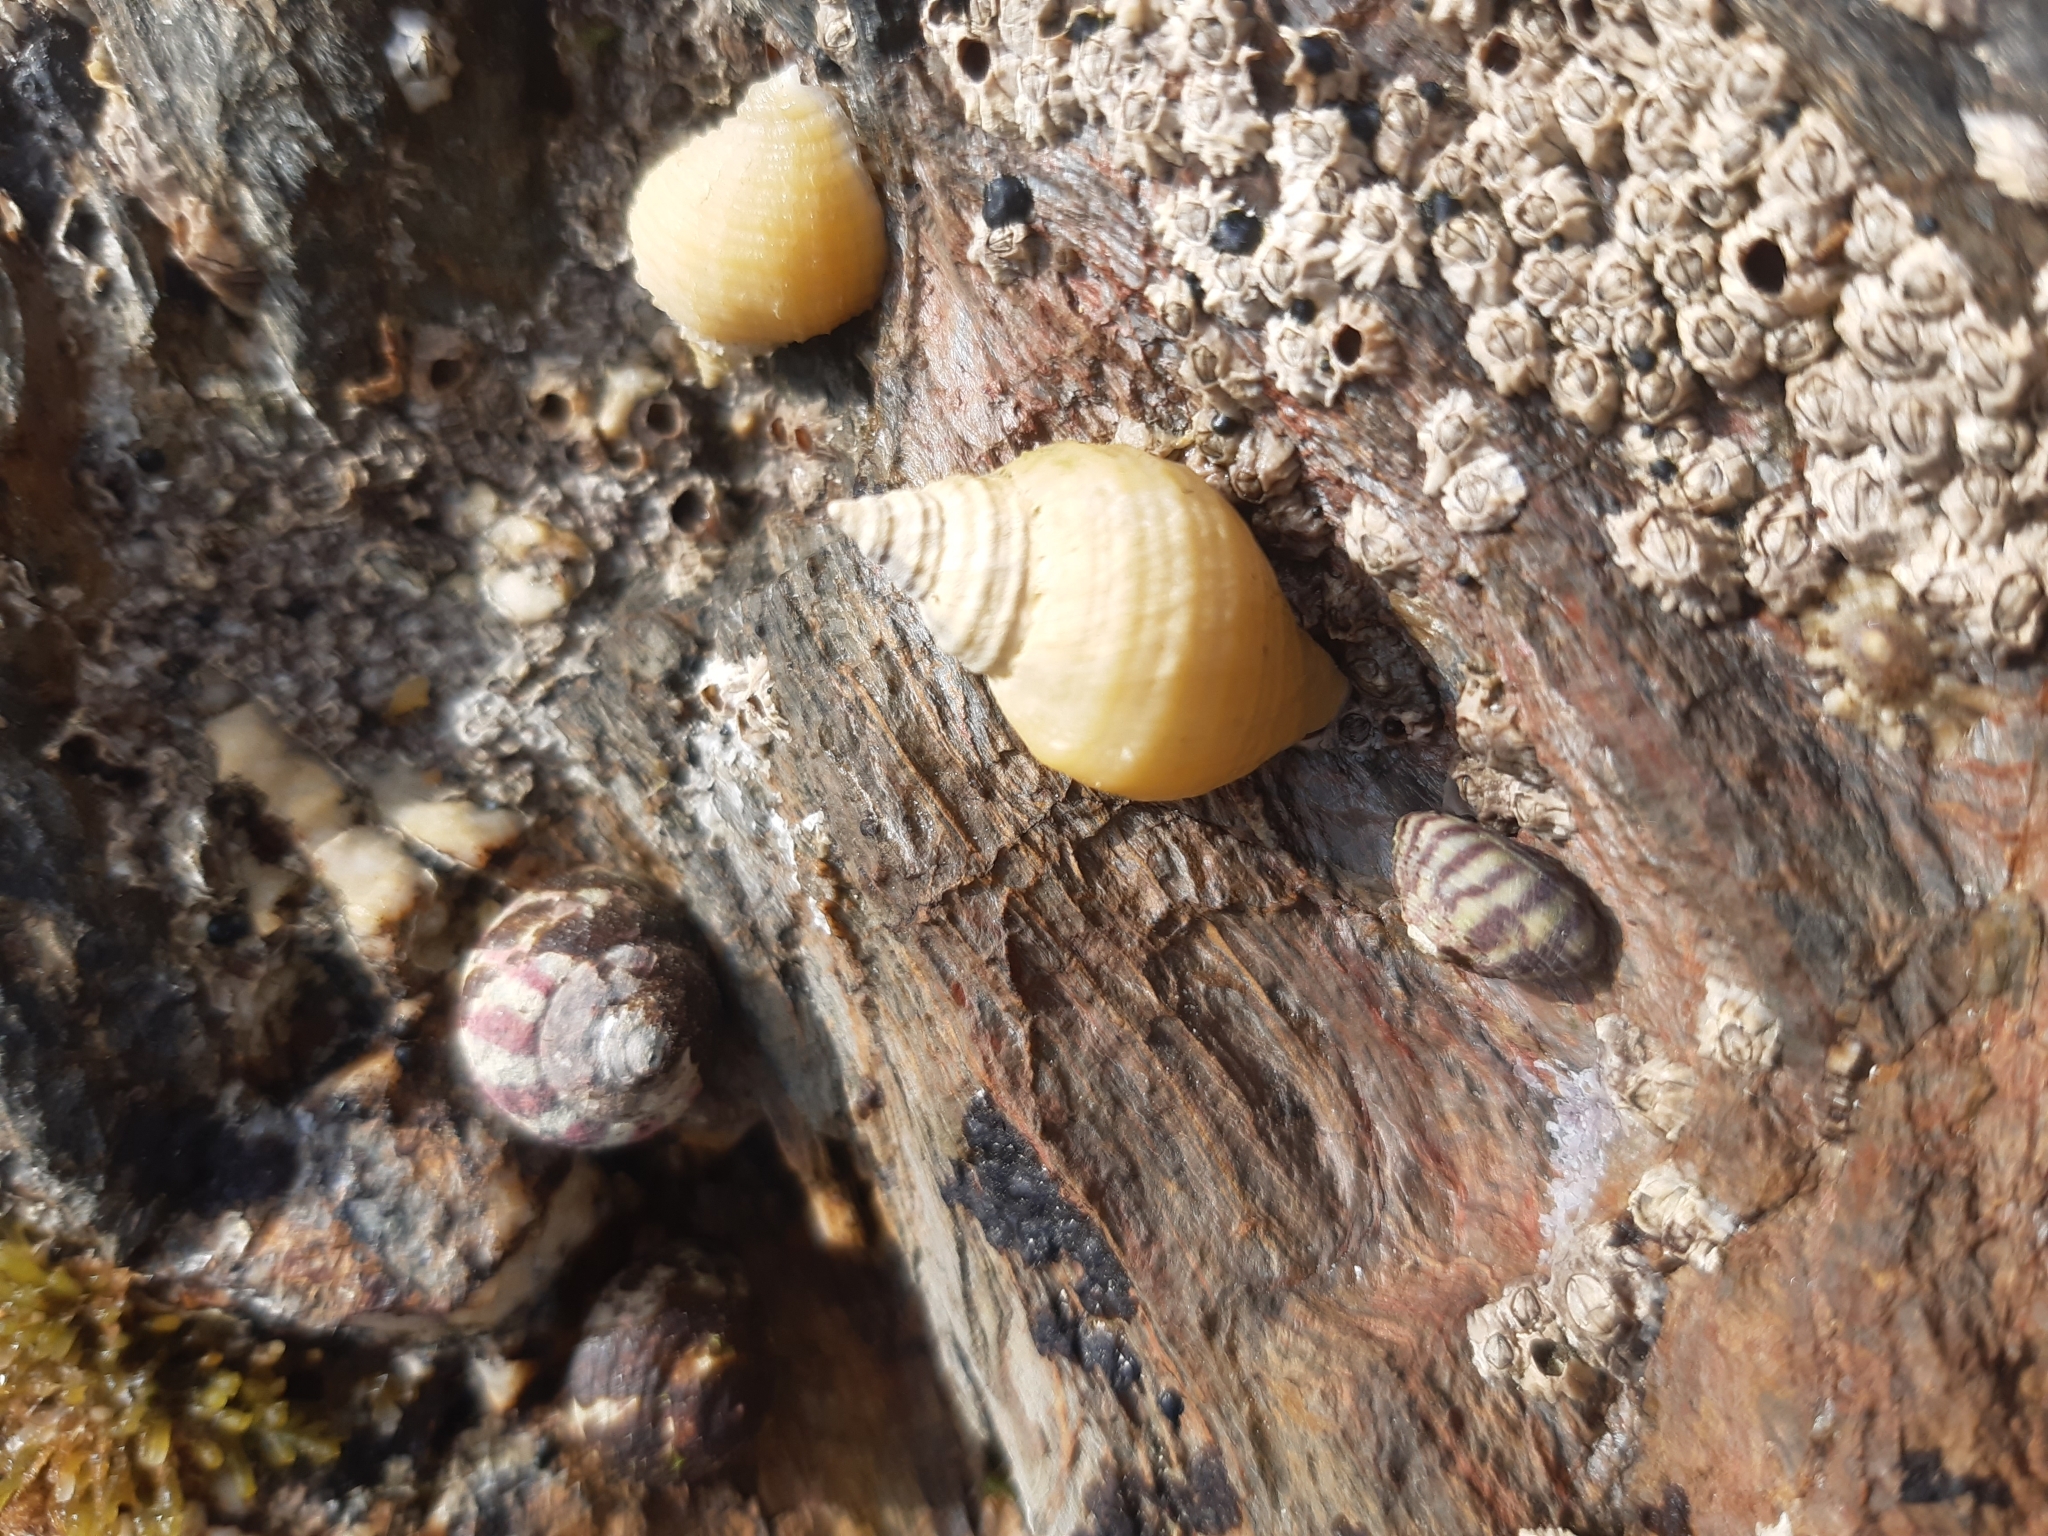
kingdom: Animalia
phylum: Mollusca
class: Gastropoda
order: Neogastropoda
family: Muricidae
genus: Nucella
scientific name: Nucella lapillus
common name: Dog whelk
